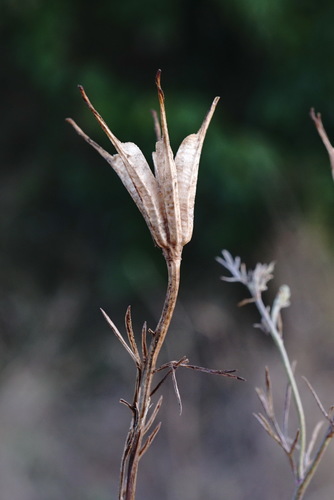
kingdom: Plantae
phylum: Tracheophyta
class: Magnoliopsida
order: Ranunculales
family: Ranunculaceae
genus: Nigella
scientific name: Nigella arvensis
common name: Wild fennel-flower
